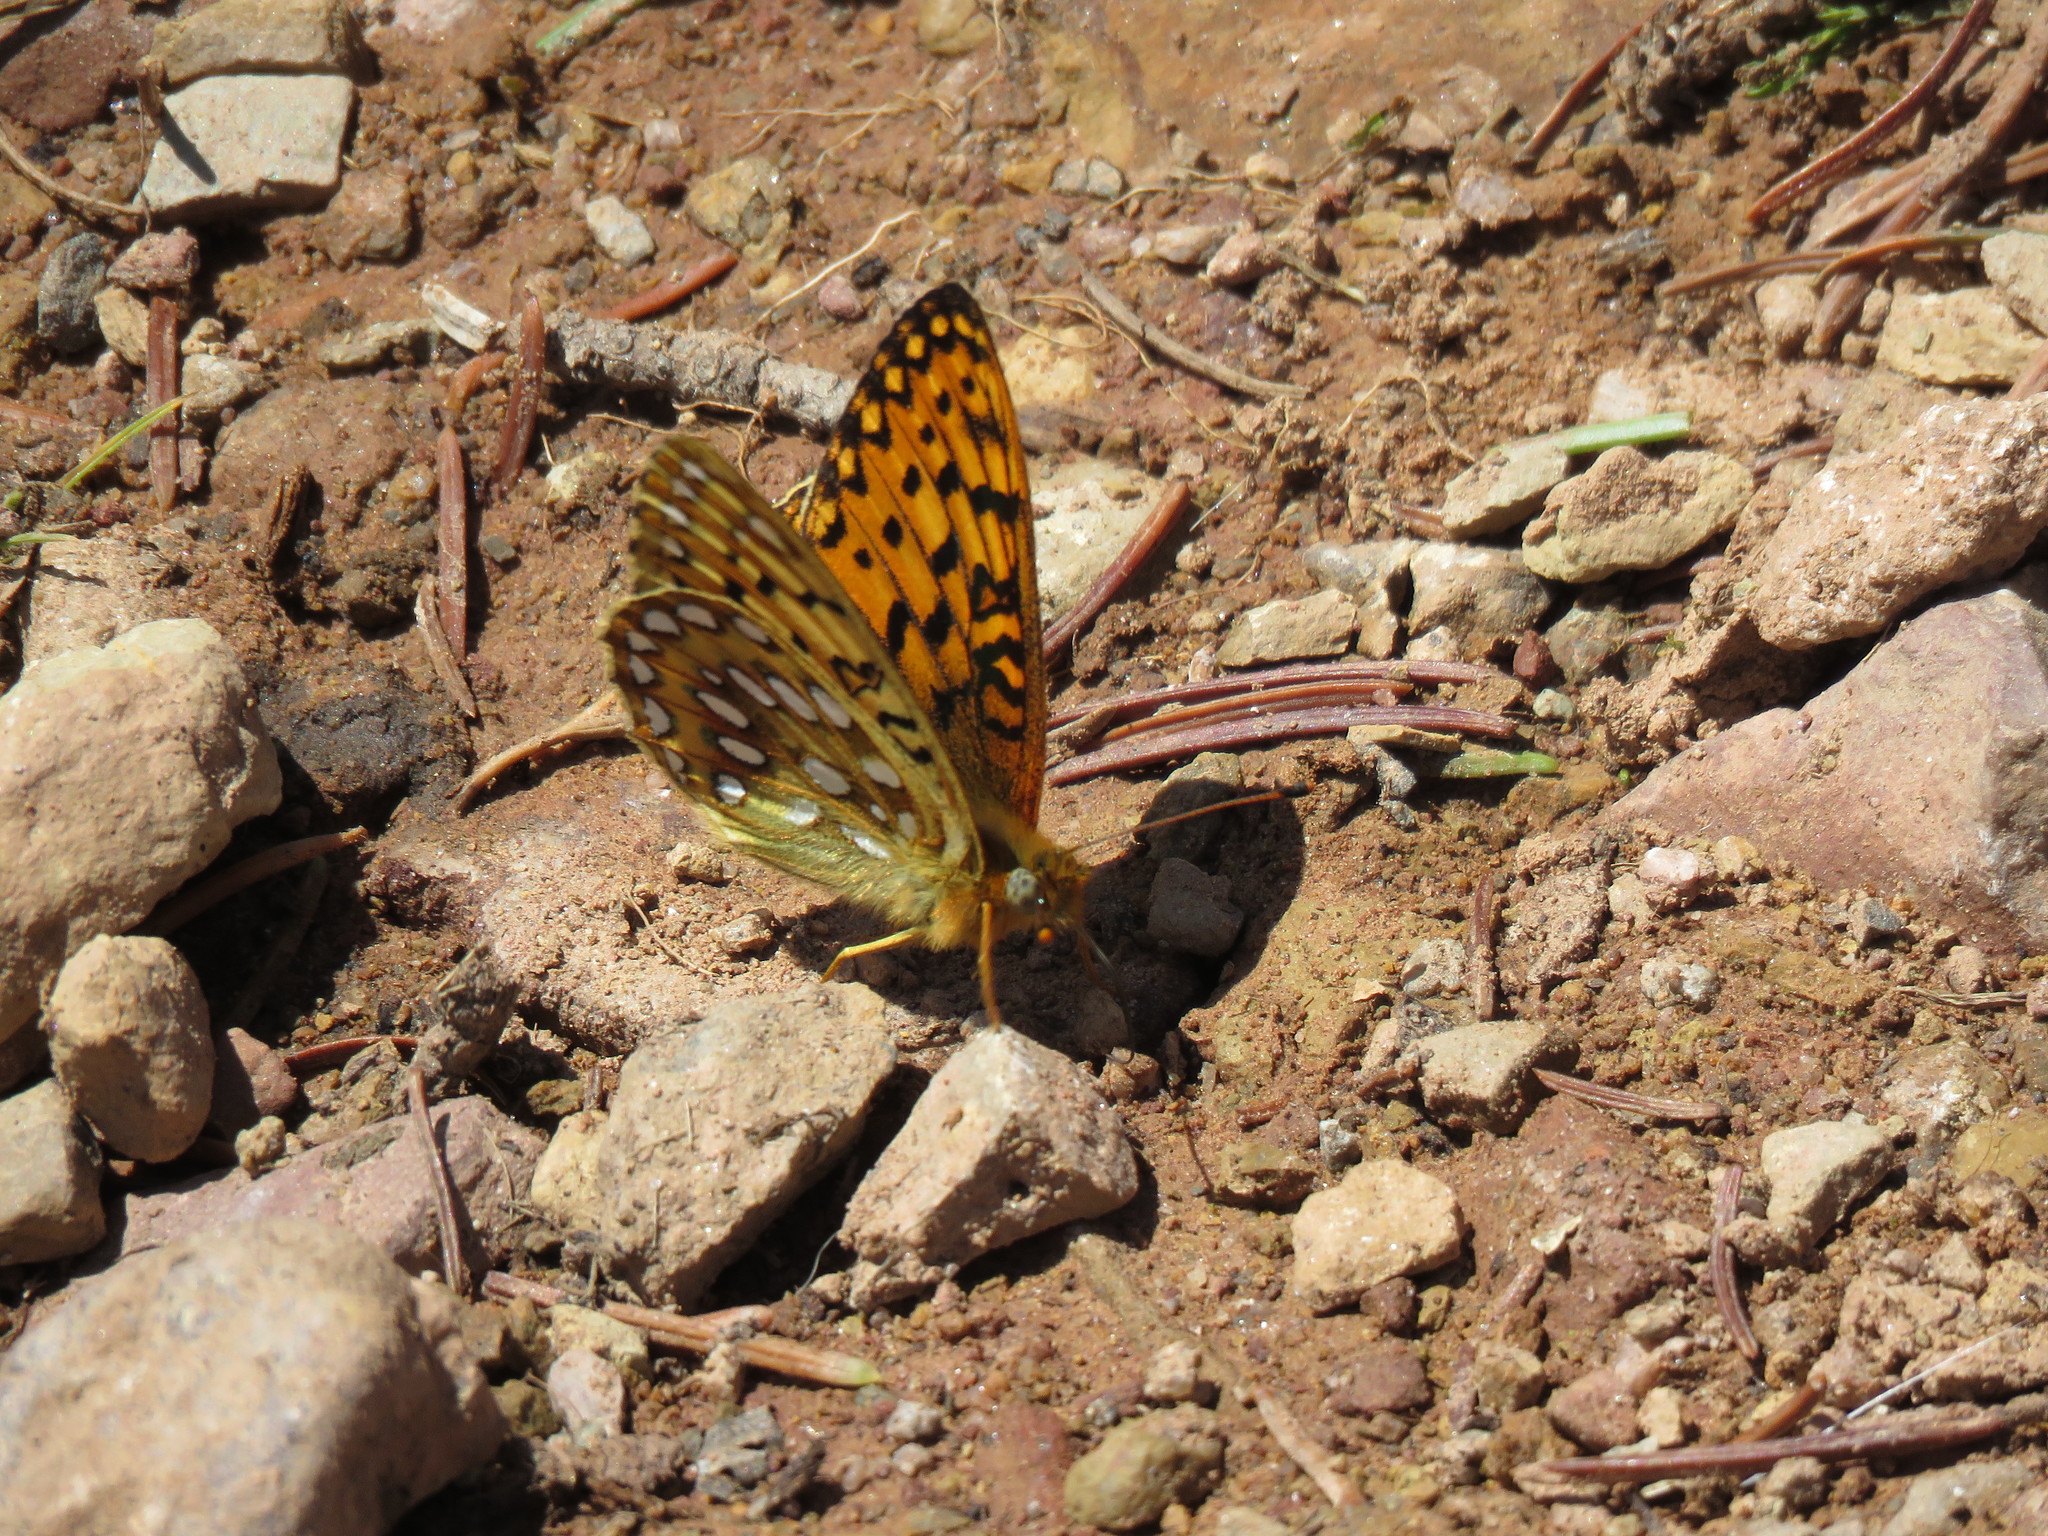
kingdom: Animalia
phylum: Arthropoda
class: Insecta
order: Lepidoptera
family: Nymphalidae
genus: Speyeria
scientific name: Speyeria mormonia
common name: Mormon fritillary
